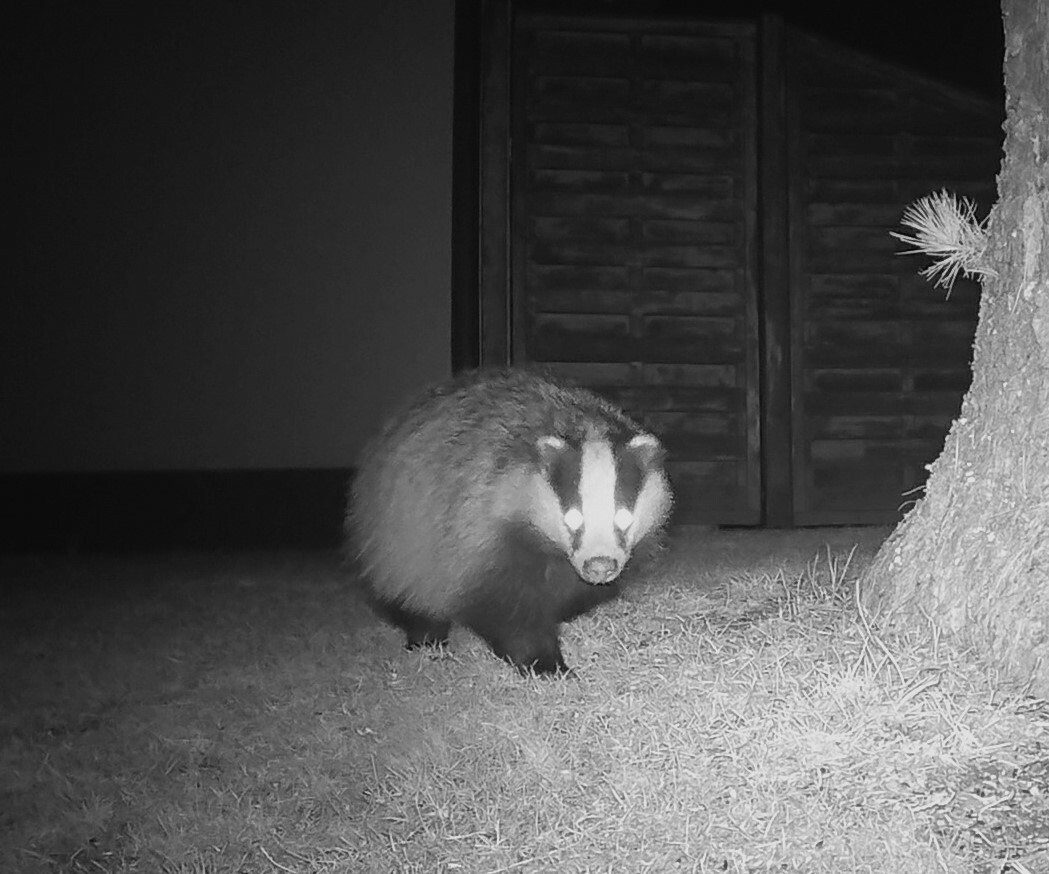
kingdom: Animalia
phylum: Chordata
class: Mammalia
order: Carnivora
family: Mustelidae
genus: Meles
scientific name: Meles meles
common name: Eurasian badger
